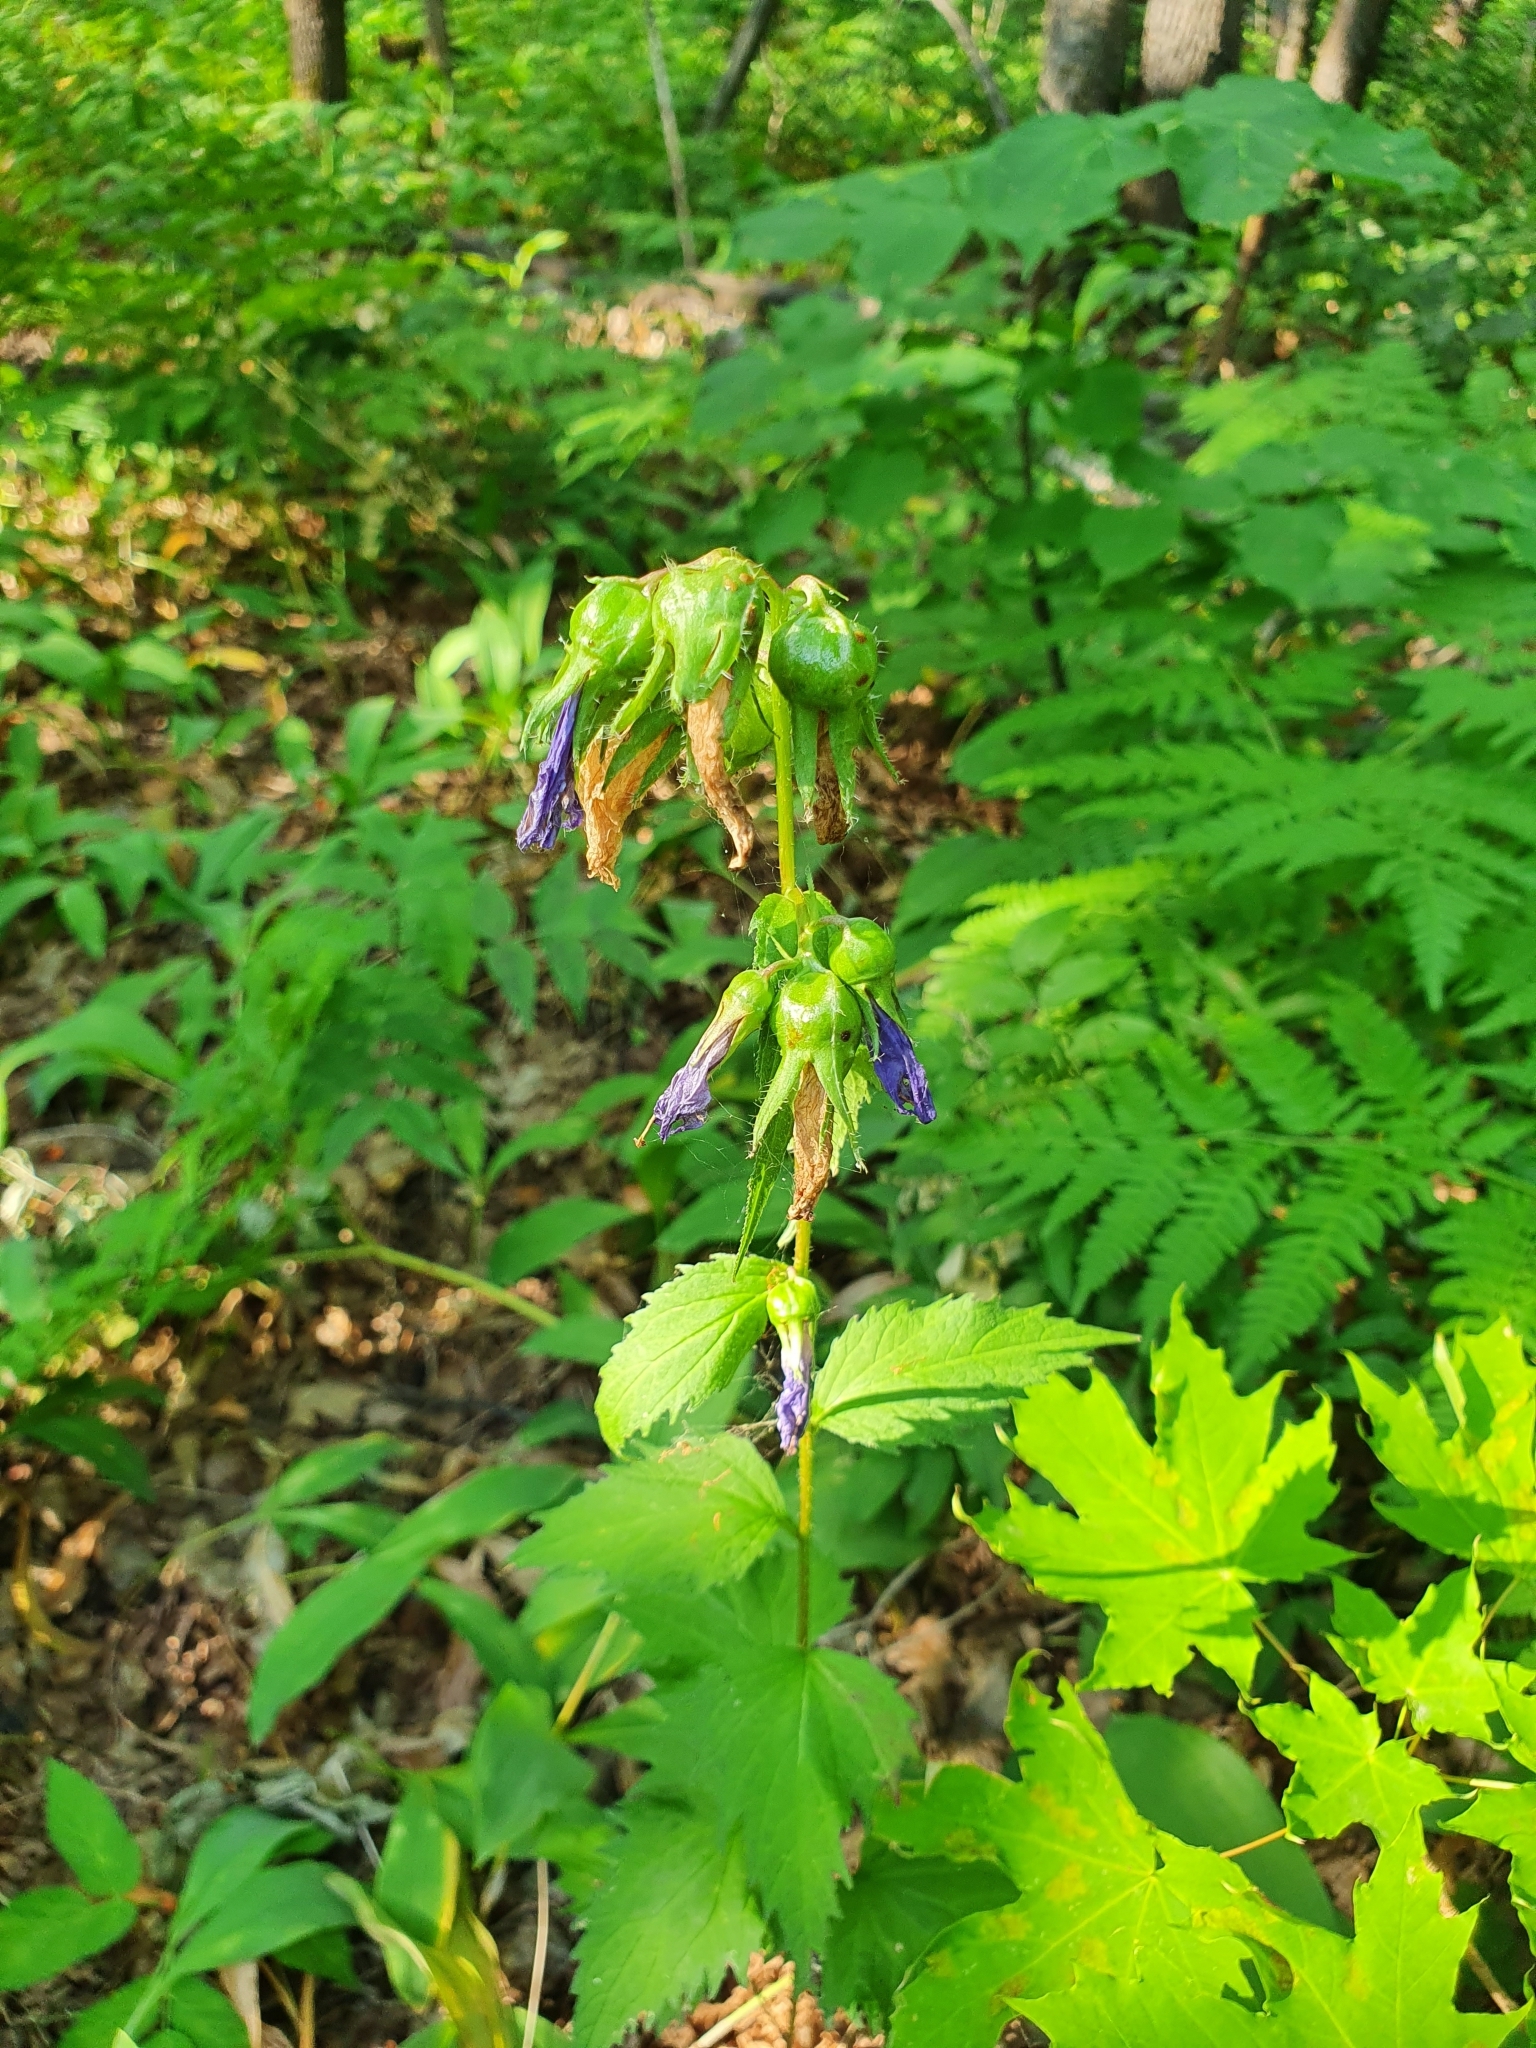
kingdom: Plantae
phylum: Tracheophyta
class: Magnoliopsida
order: Asterales
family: Campanulaceae
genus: Campanula
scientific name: Campanula trachelium
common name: Nettle-leaved bellflower
